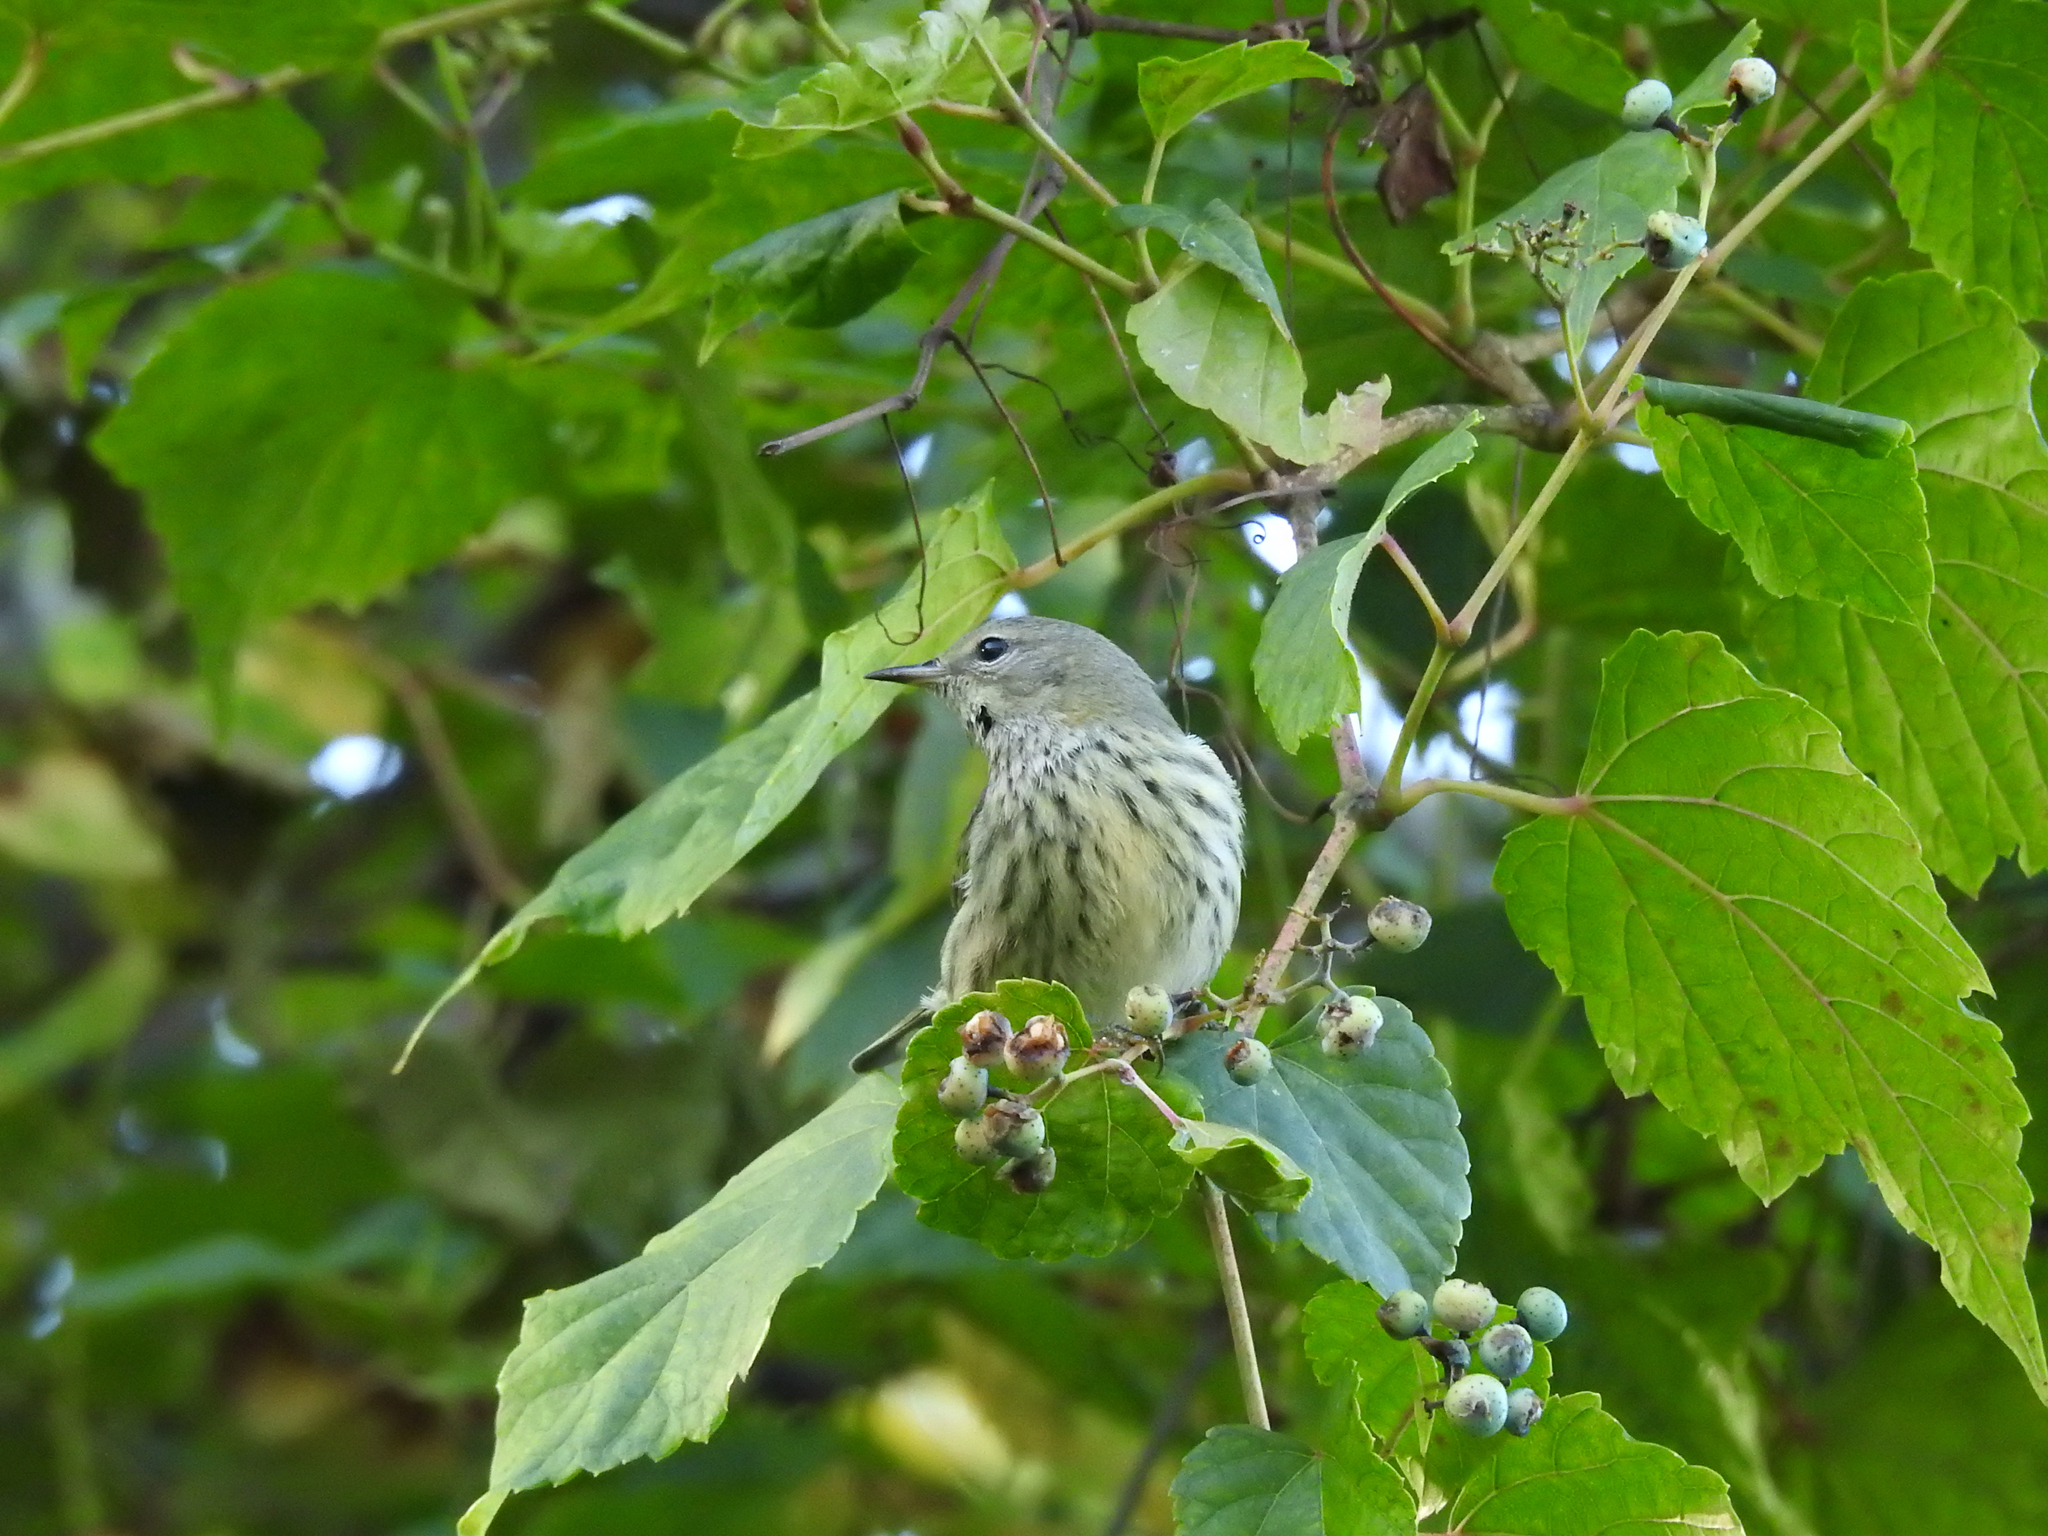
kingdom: Animalia
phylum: Chordata
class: Aves
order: Passeriformes
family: Parulidae
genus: Setophaga
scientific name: Setophaga tigrina
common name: Cape may warbler
